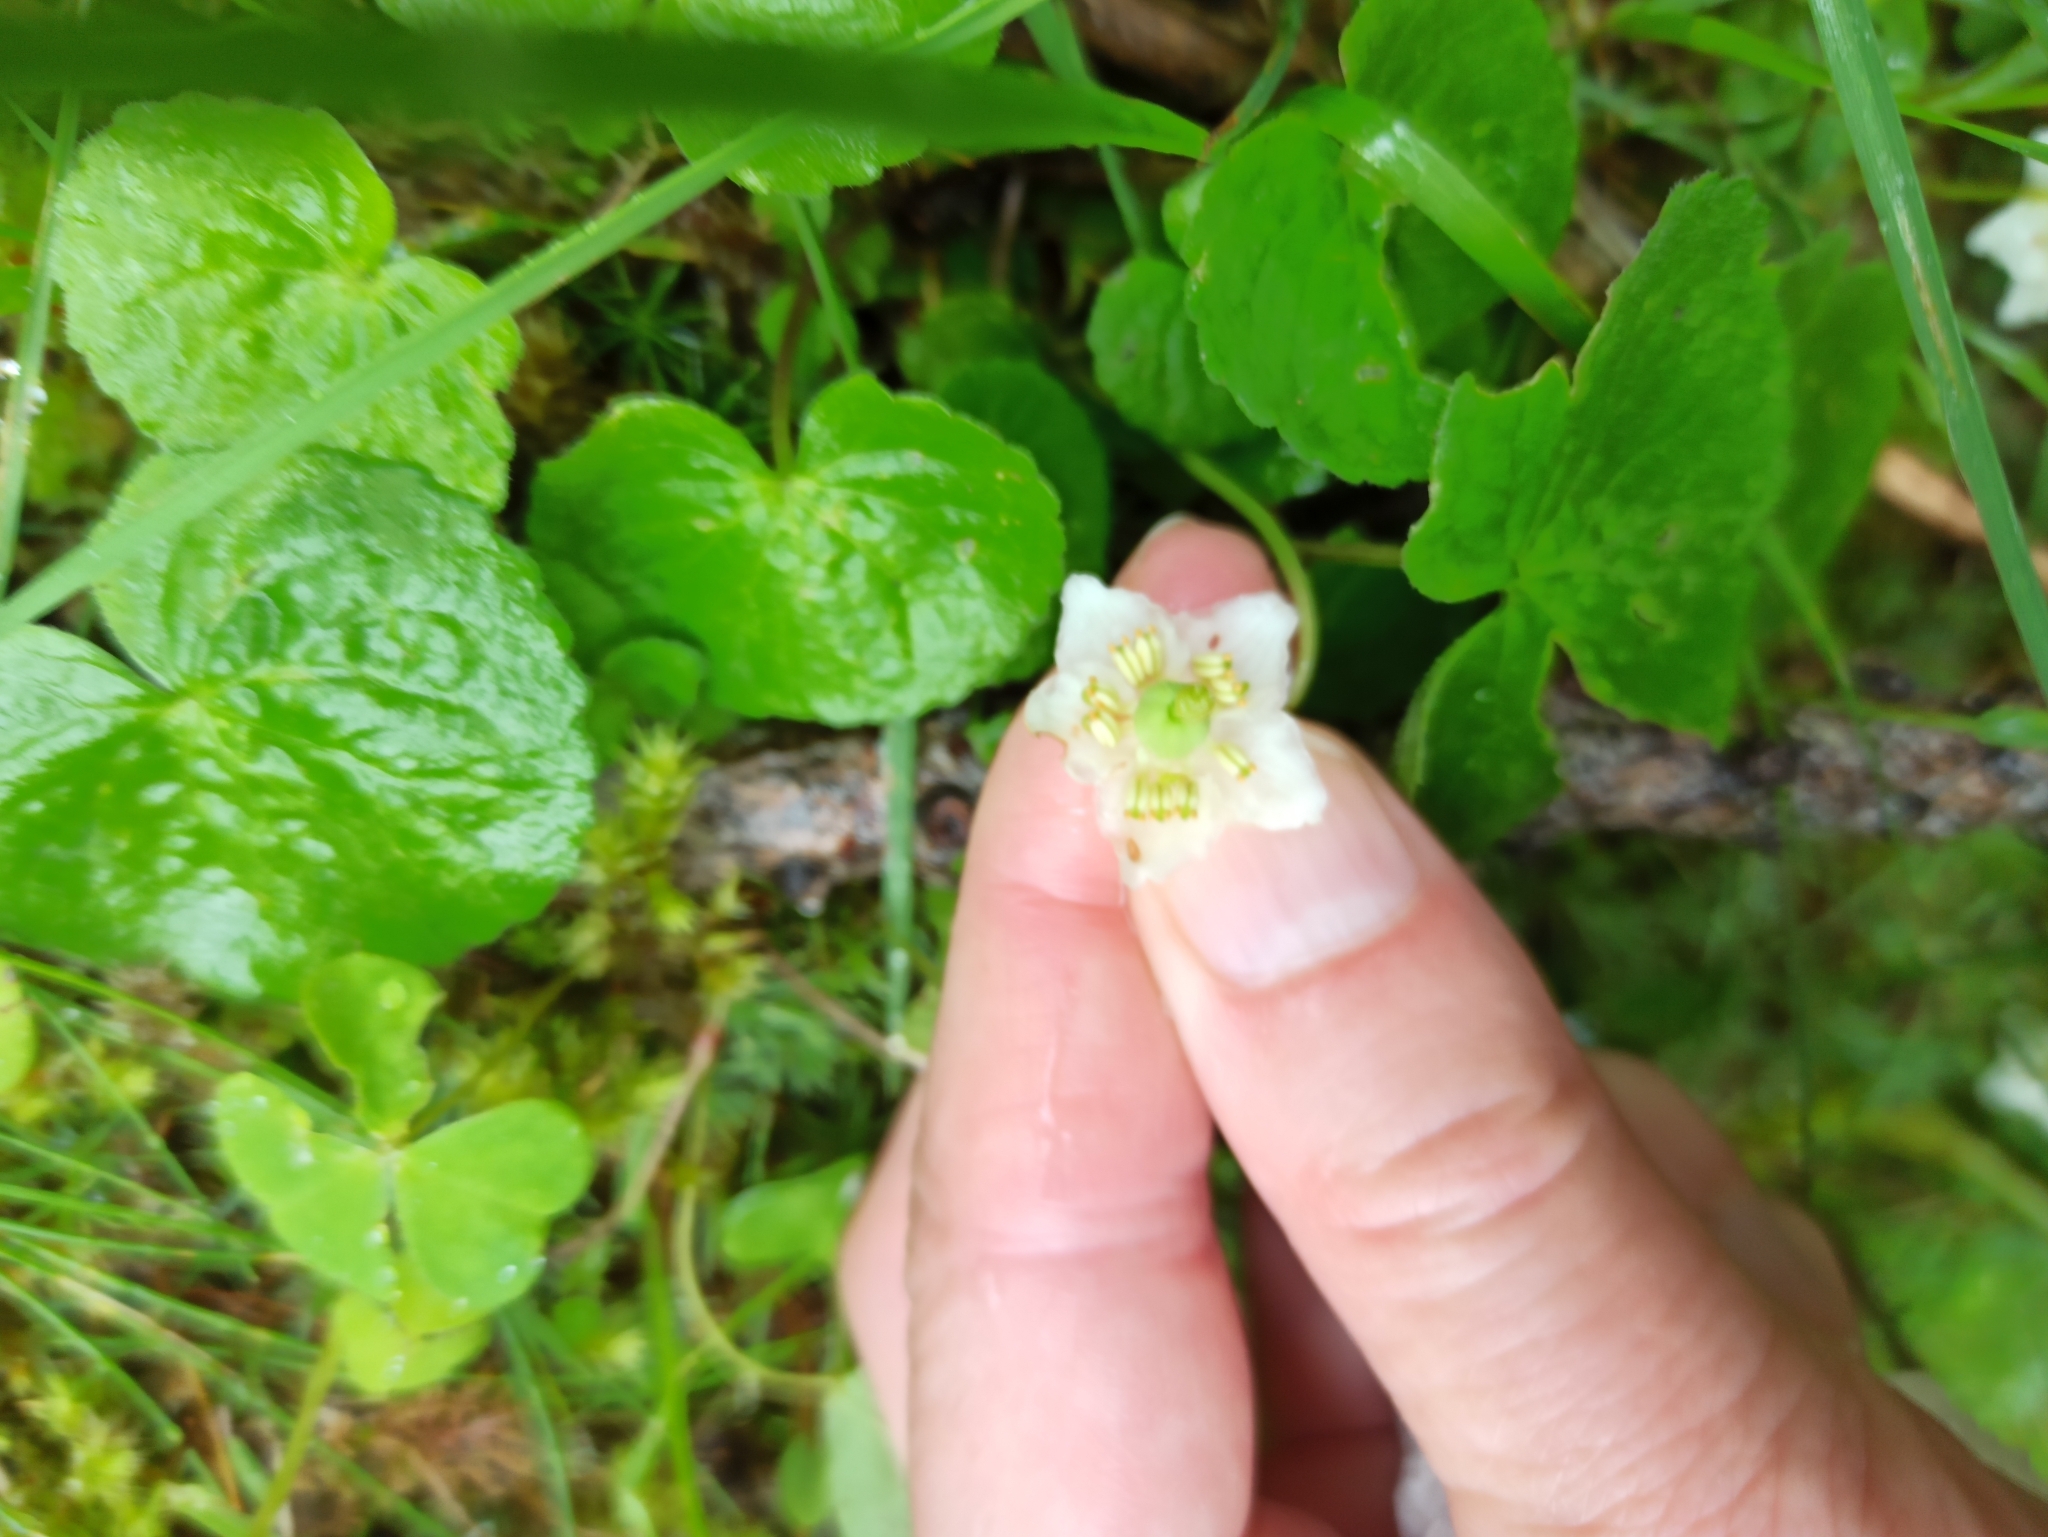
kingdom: Plantae
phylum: Tracheophyta
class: Magnoliopsida
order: Ericales
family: Ericaceae
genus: Moneses
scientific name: Moneses uniflora
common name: One-flowered wintergreen
